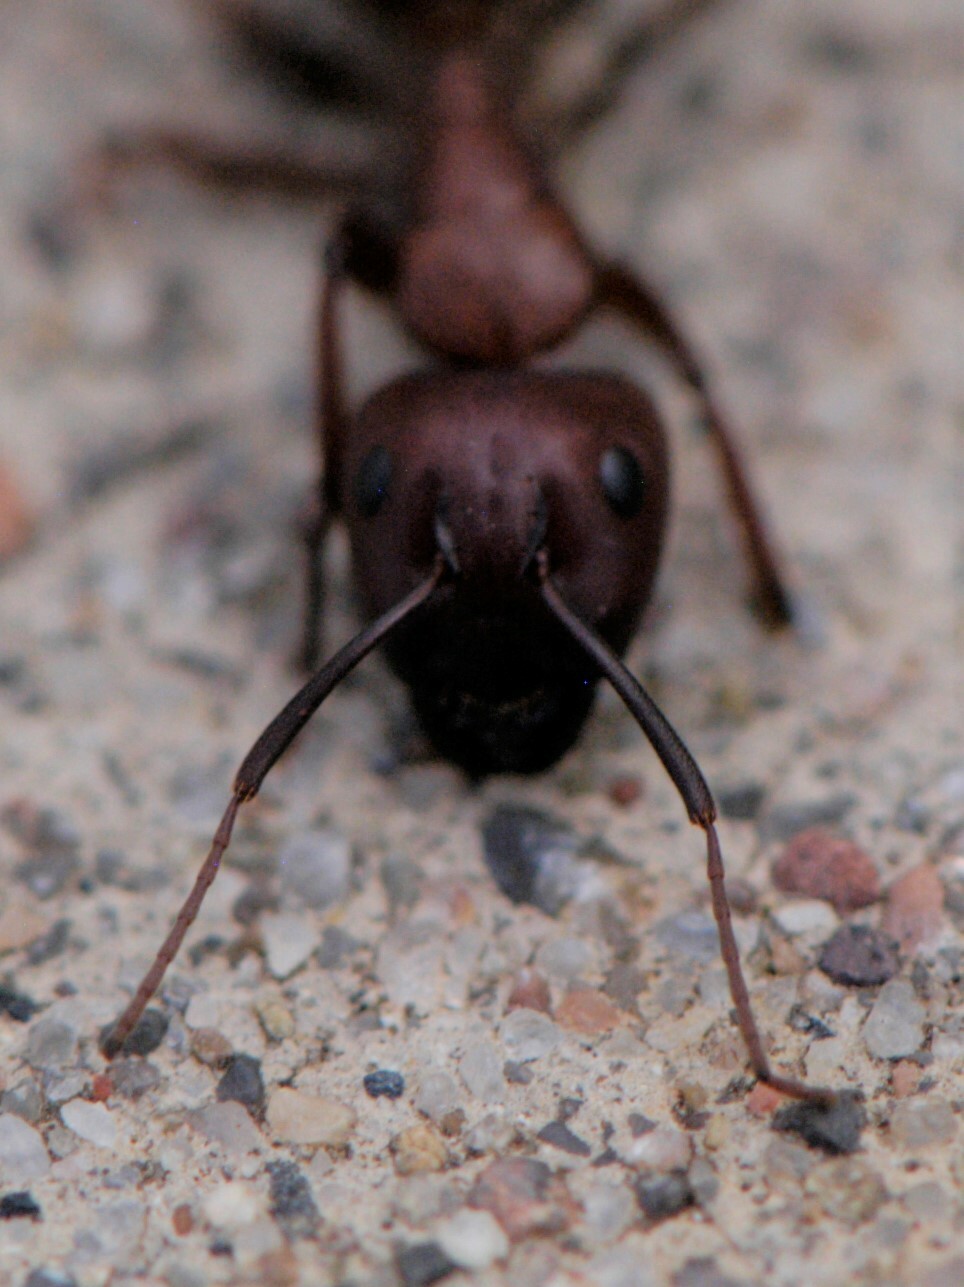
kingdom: Animalia
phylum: Arthropoda
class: Insecta
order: Hymenoptera
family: Formicidae
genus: Camponotus
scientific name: Camponotus
